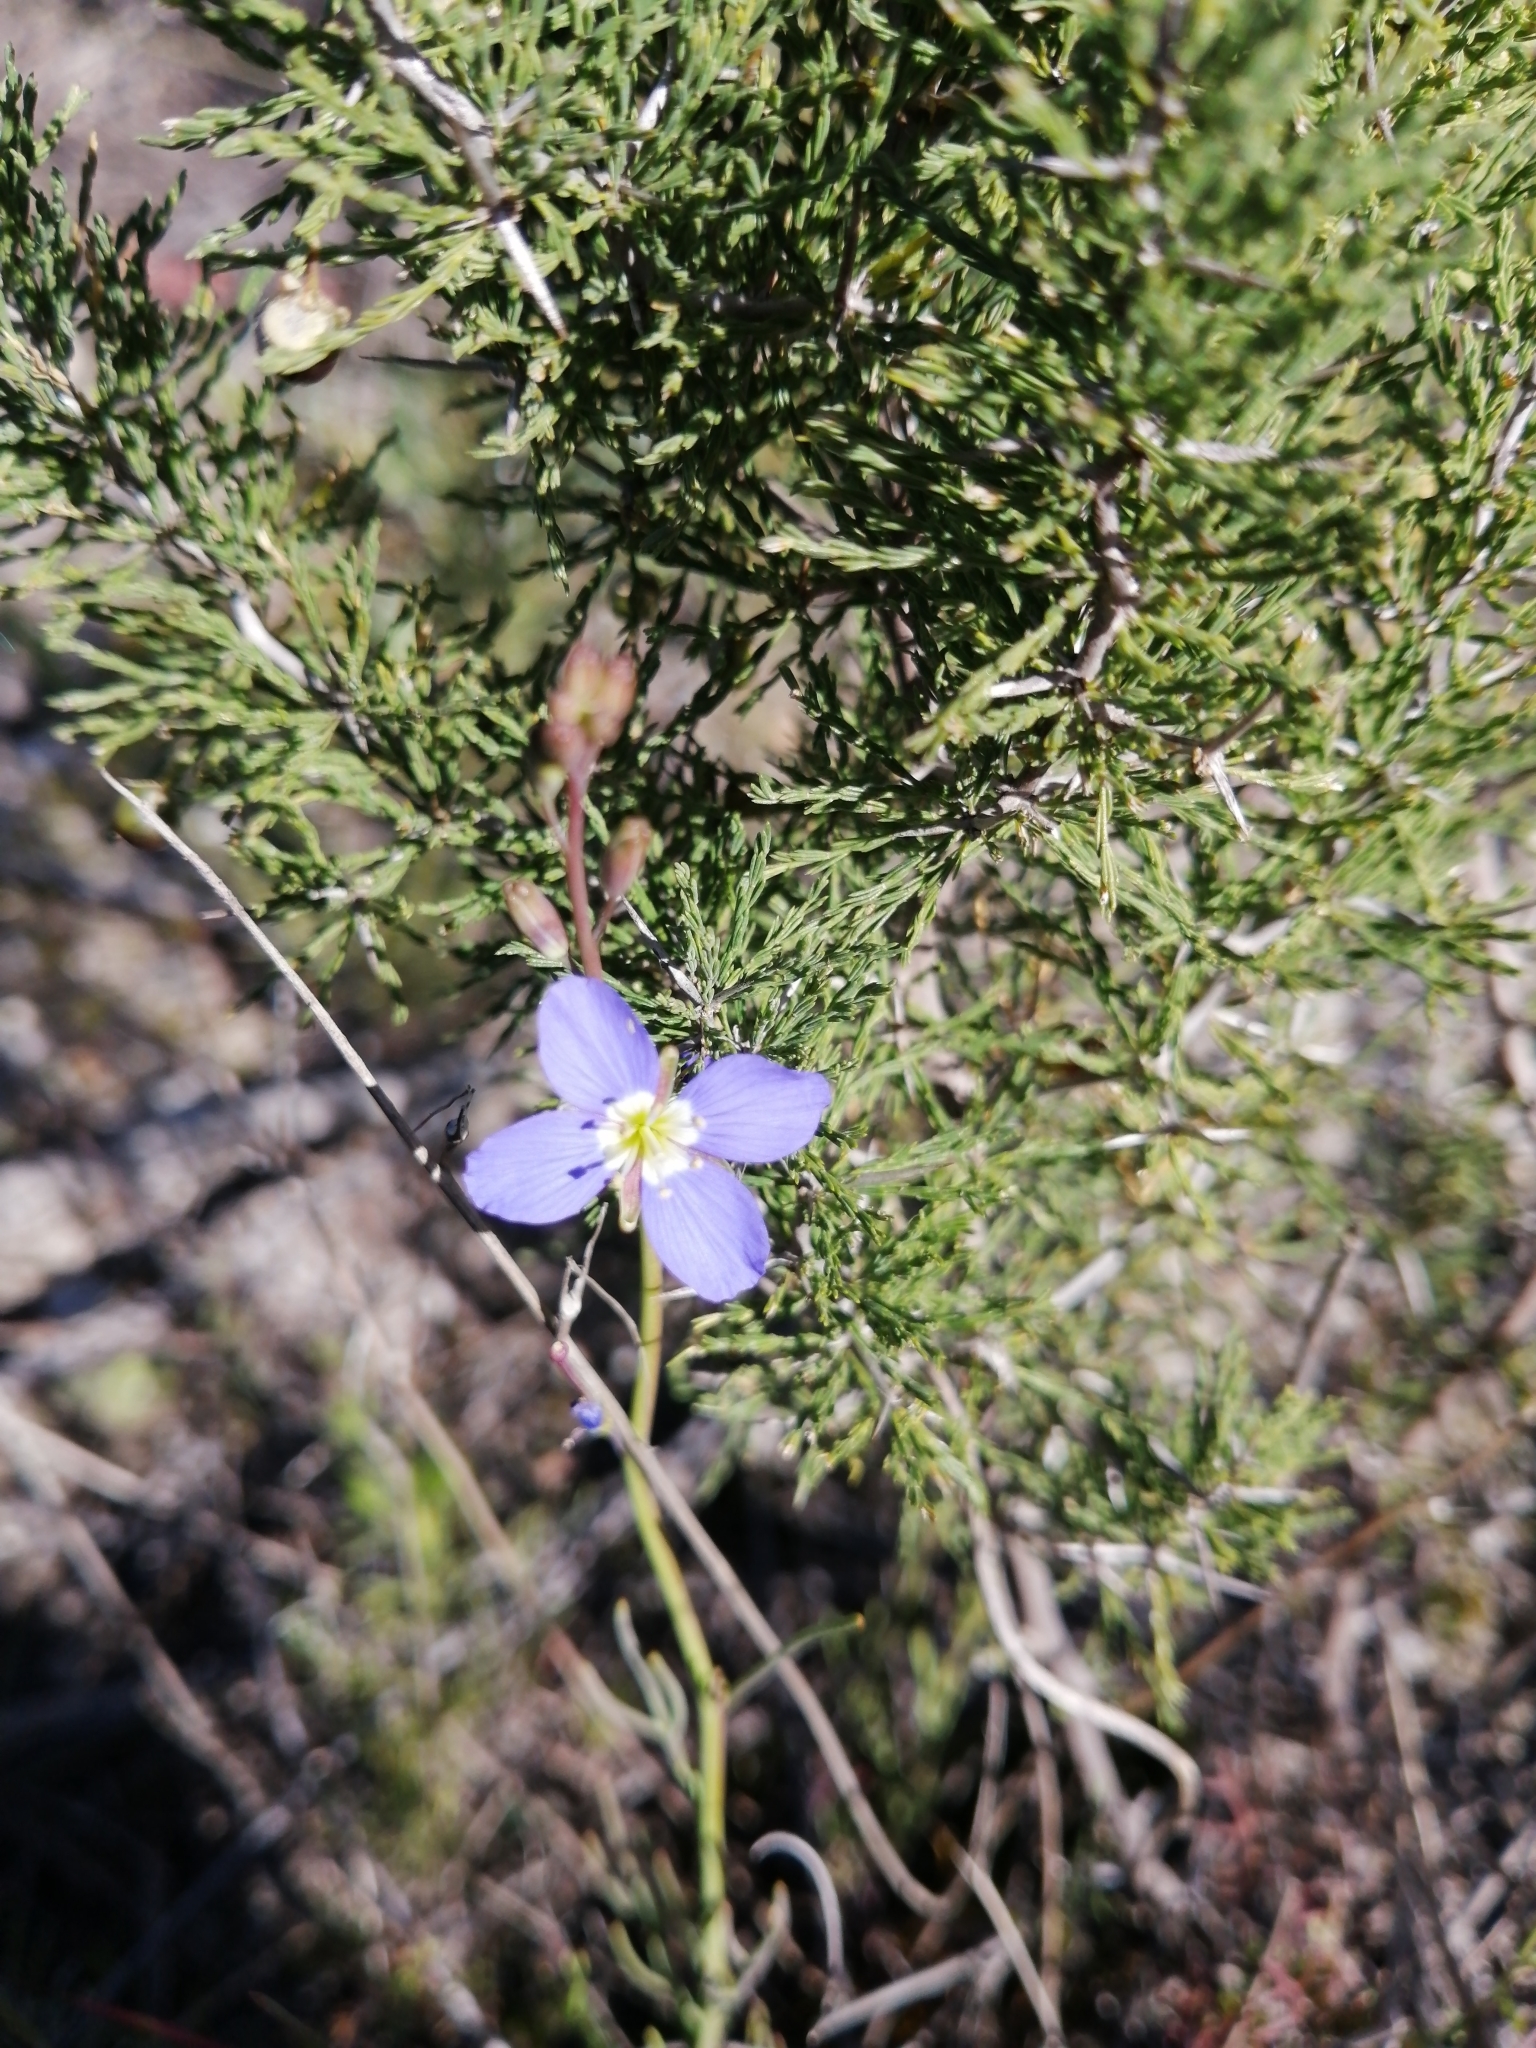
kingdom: Plantae
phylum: Tracheophyta
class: Magnoliopsida
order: Brassicales
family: Brassicaceae
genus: Heliophila
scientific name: Heliophila bulbostyla
